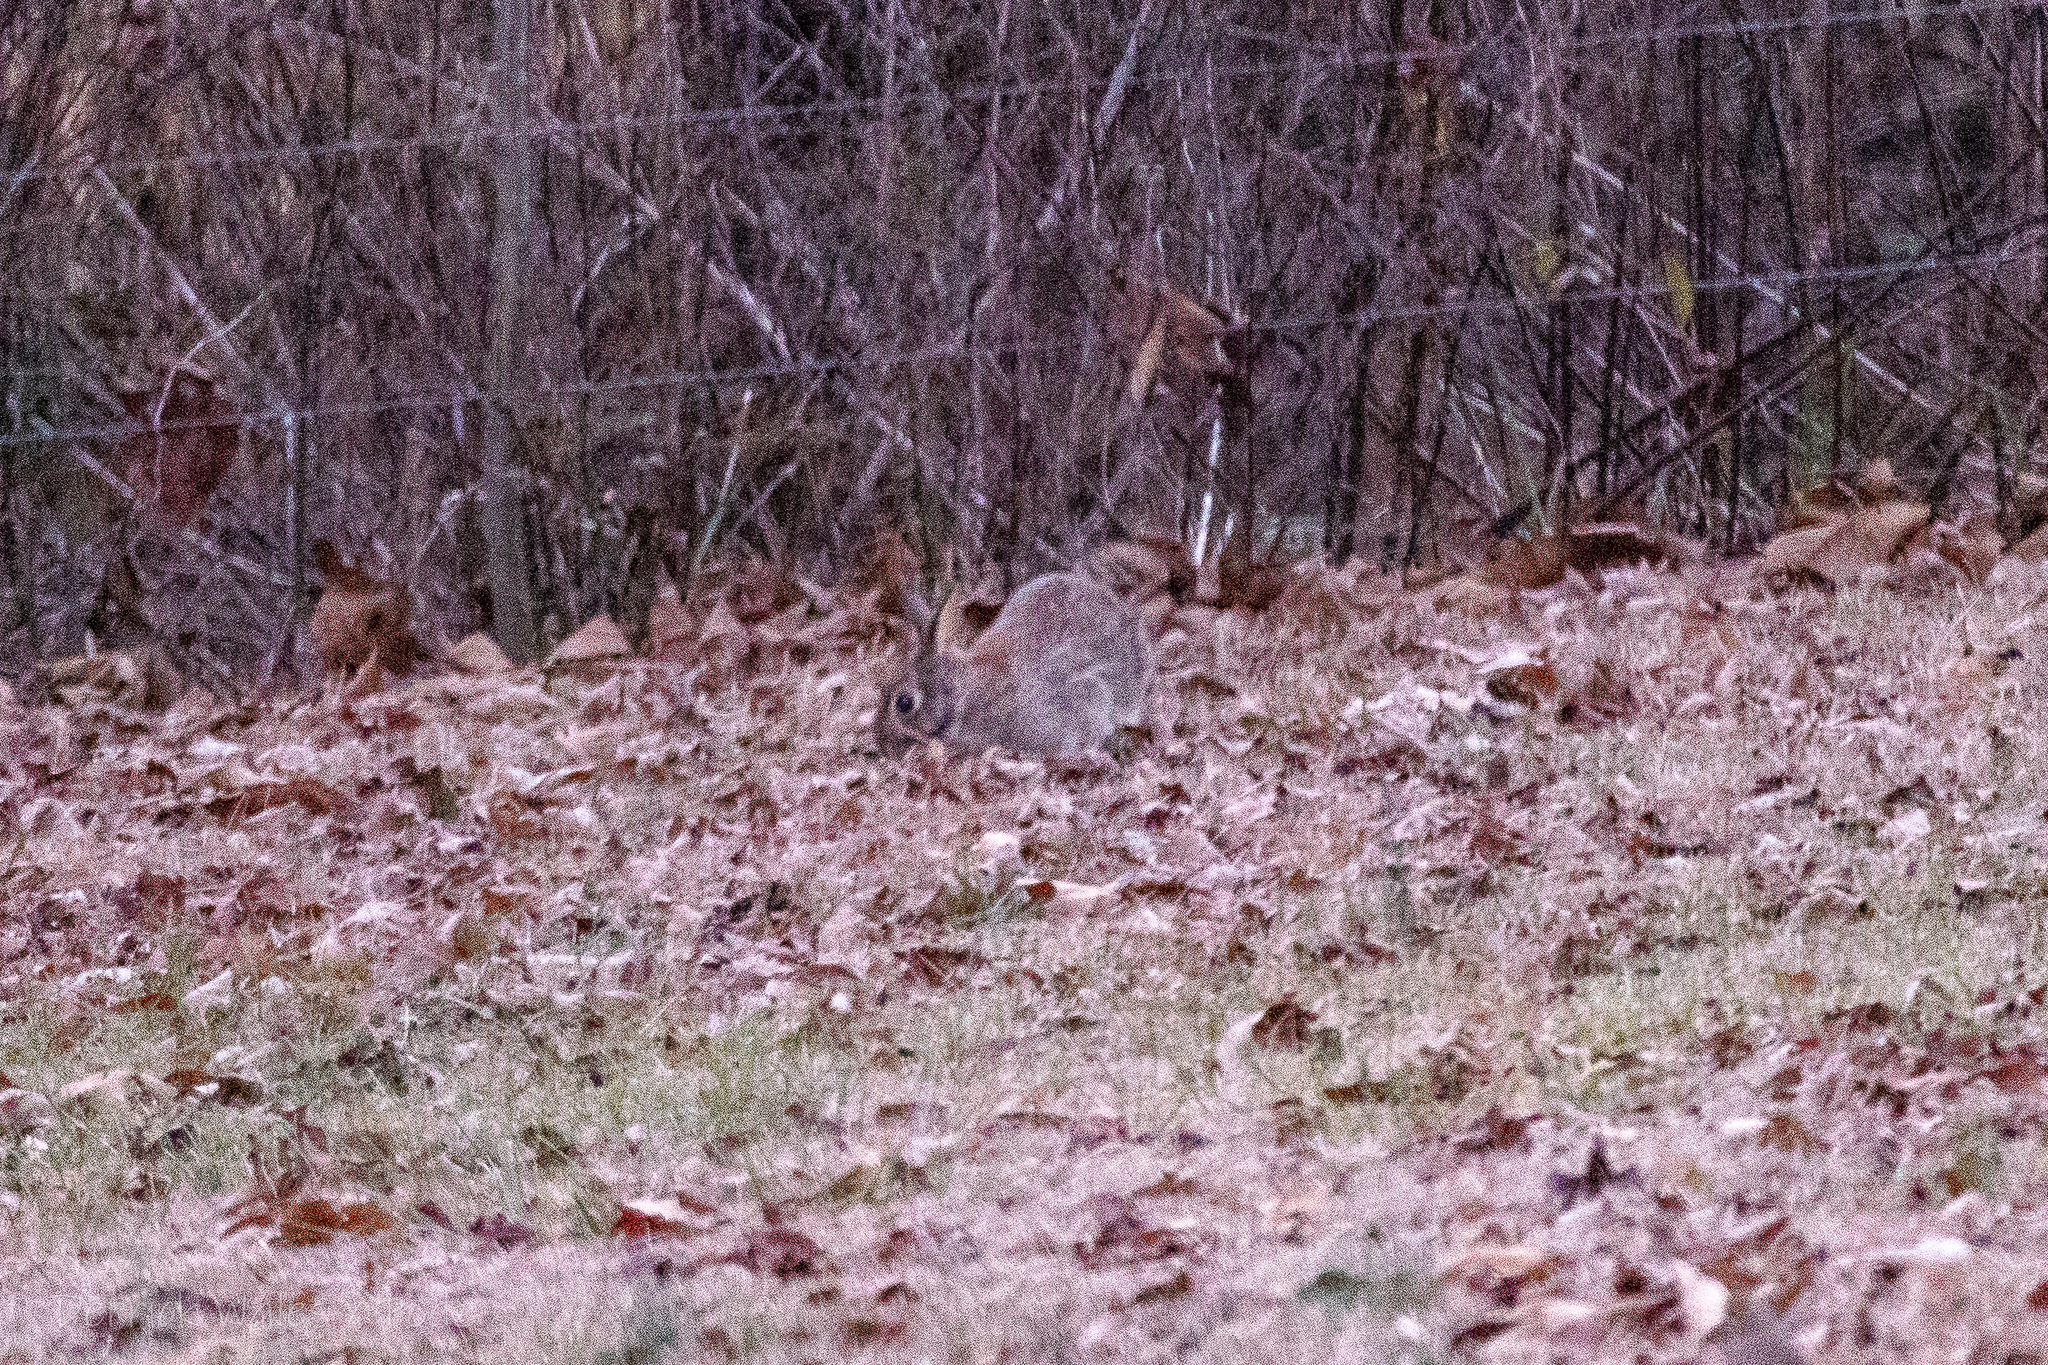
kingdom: Animalia
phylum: Chordata
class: Mammalia
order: Lagomorpha
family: Leporidae
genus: Sylvilagus
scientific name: Sylvilagus floridanus
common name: Eastern cottontail
